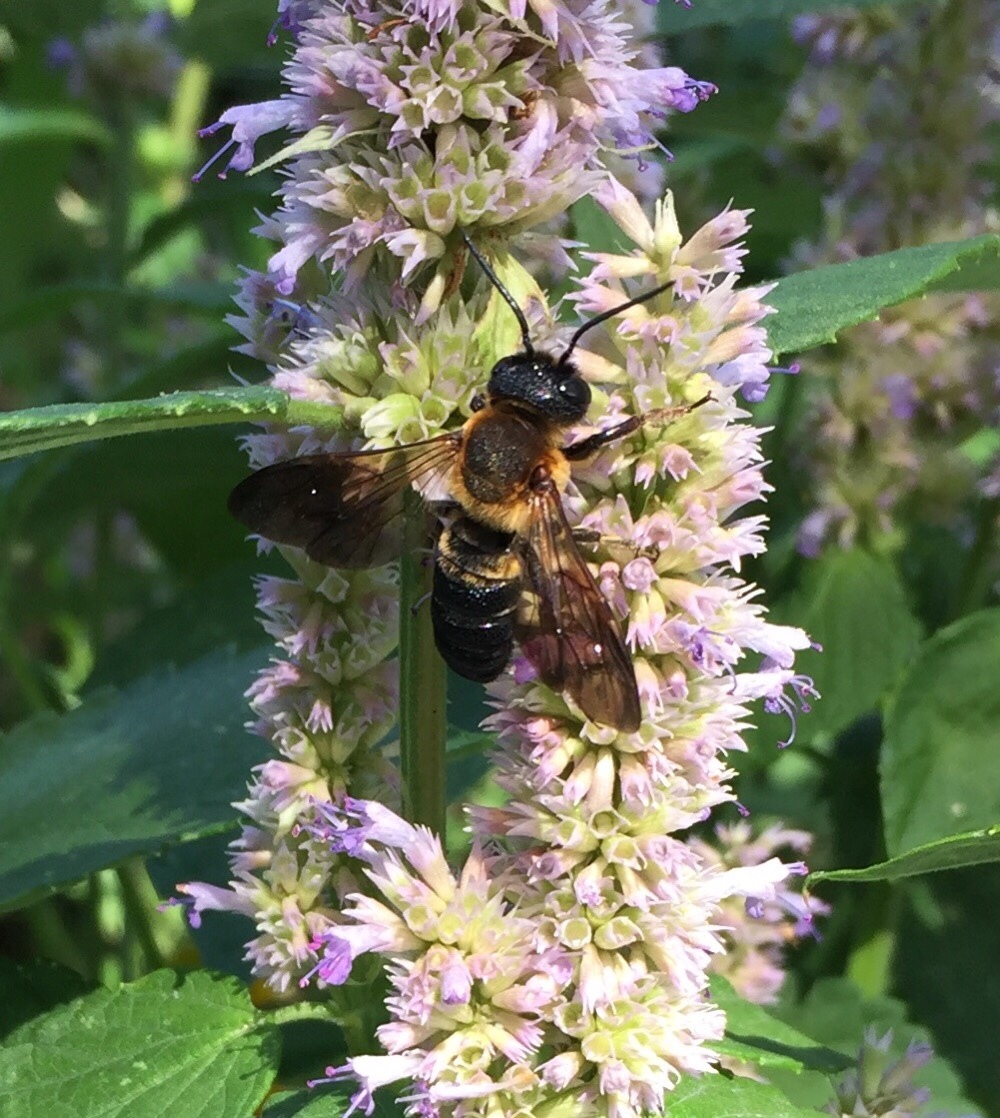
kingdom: Animalia
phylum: Arthropoda
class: Insecta
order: Hymenoptera
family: Megachilidae
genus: Megachile
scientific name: Megachile sculpturalis
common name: Sculptured resin bee
